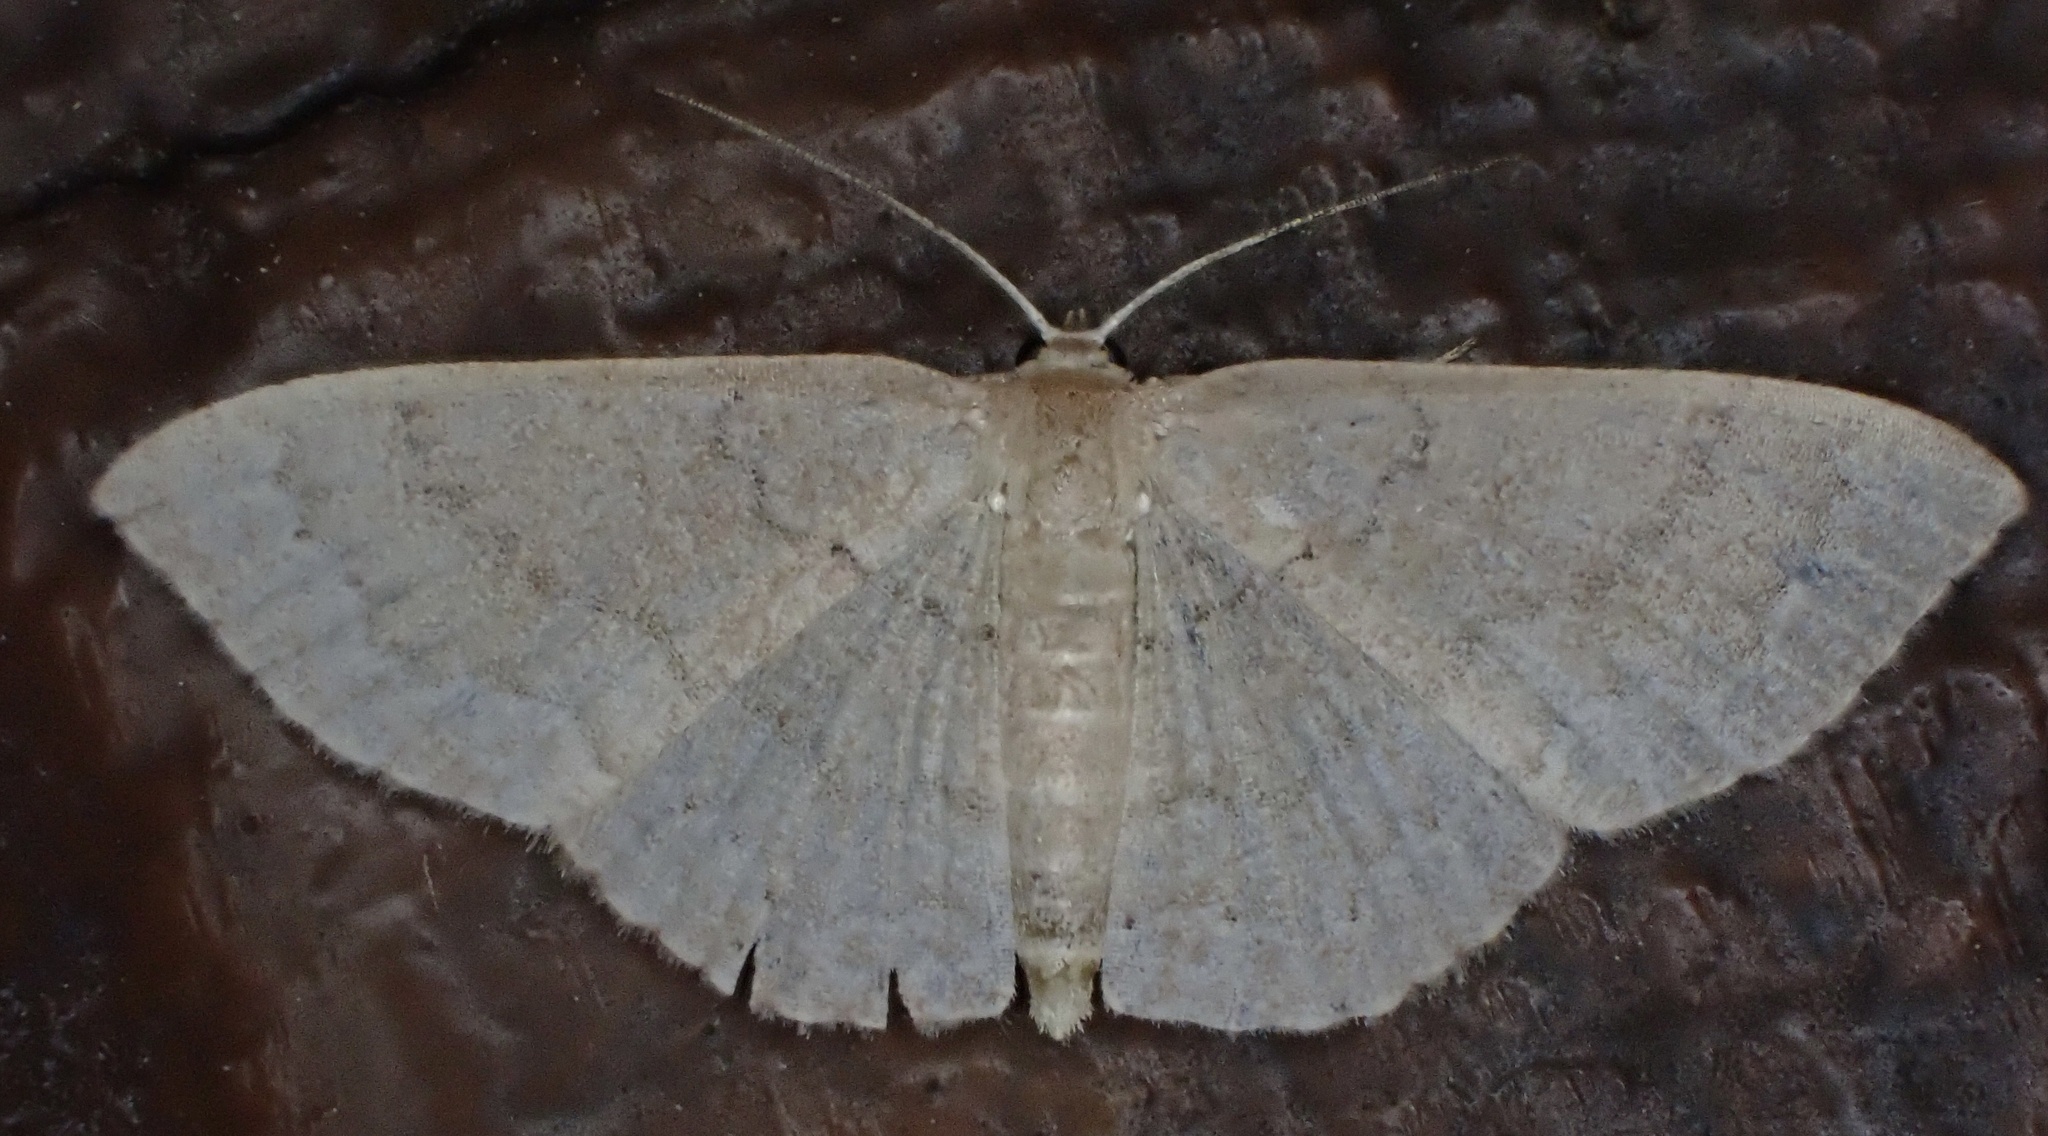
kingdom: Animalia
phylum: Arthropoda
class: Insecta
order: Lepidoptera
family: Geometridae
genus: Pleuroprucha
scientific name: Pleuroprucha insulsaria
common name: Common tan wave
